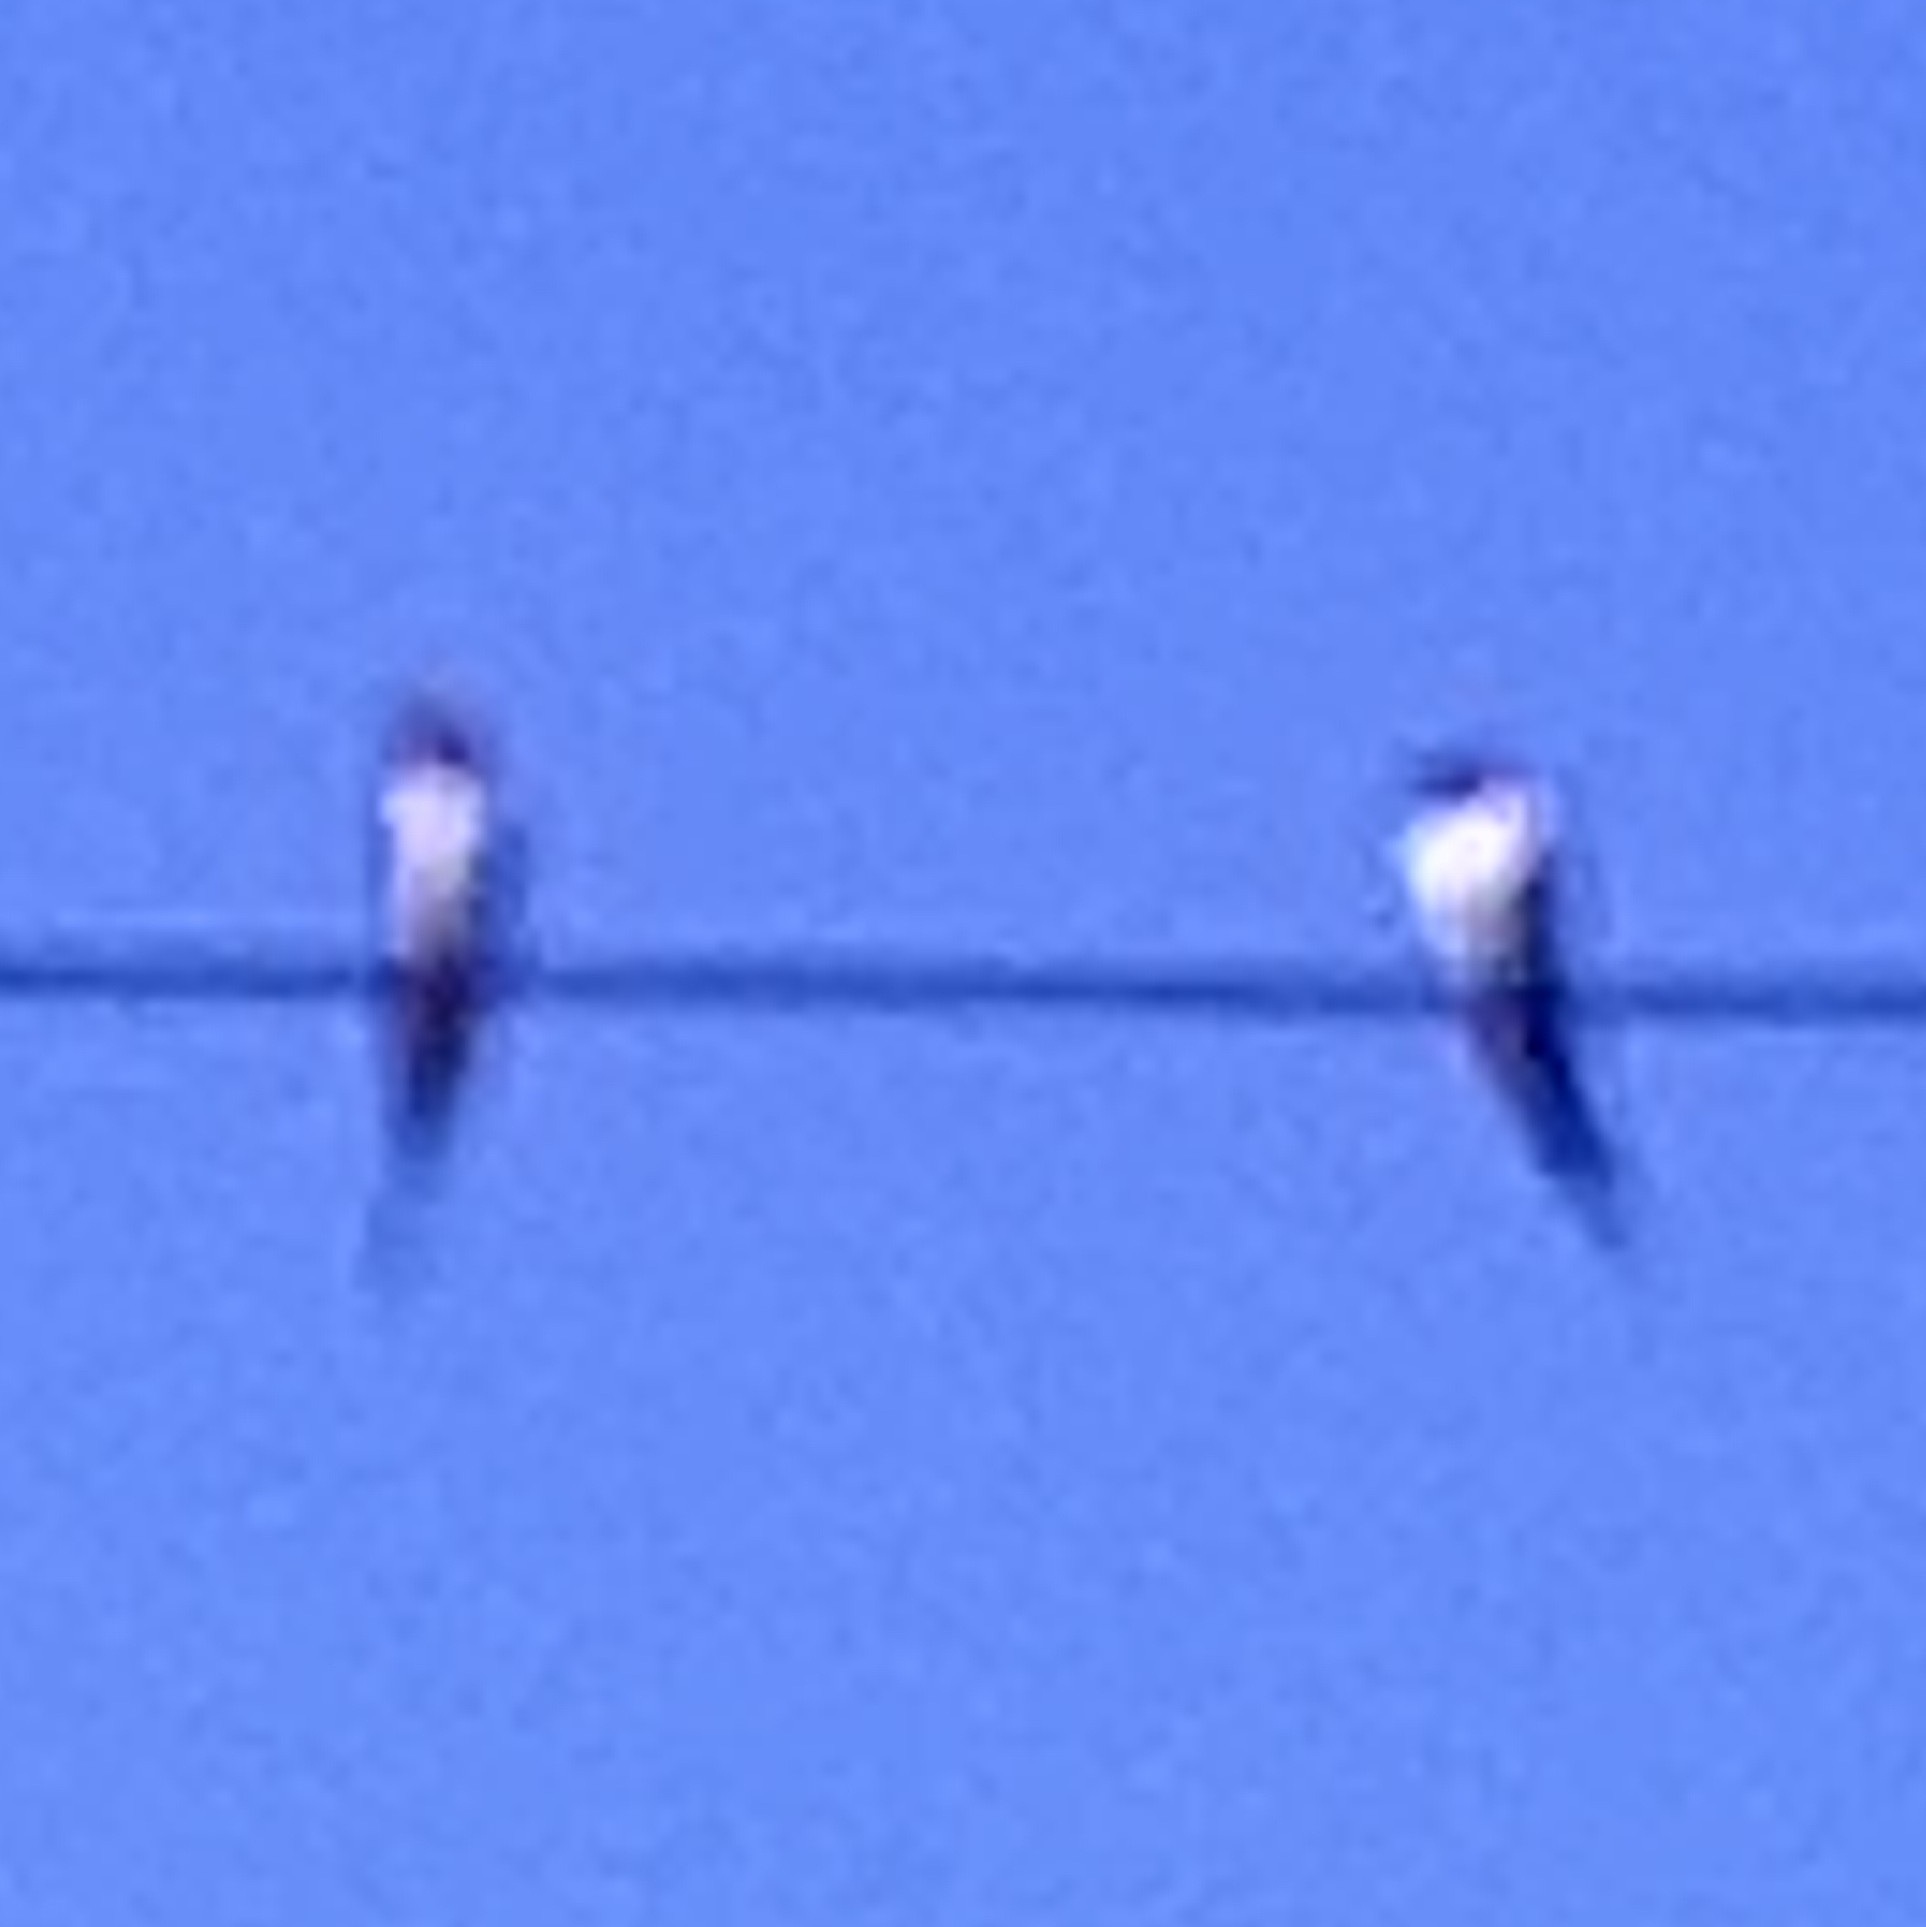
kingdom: Animalia
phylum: Chordata
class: Aves
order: Passeriformes
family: Hirundinidae
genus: Hirundo
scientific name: Hirundo rustica
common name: Barn swallow
